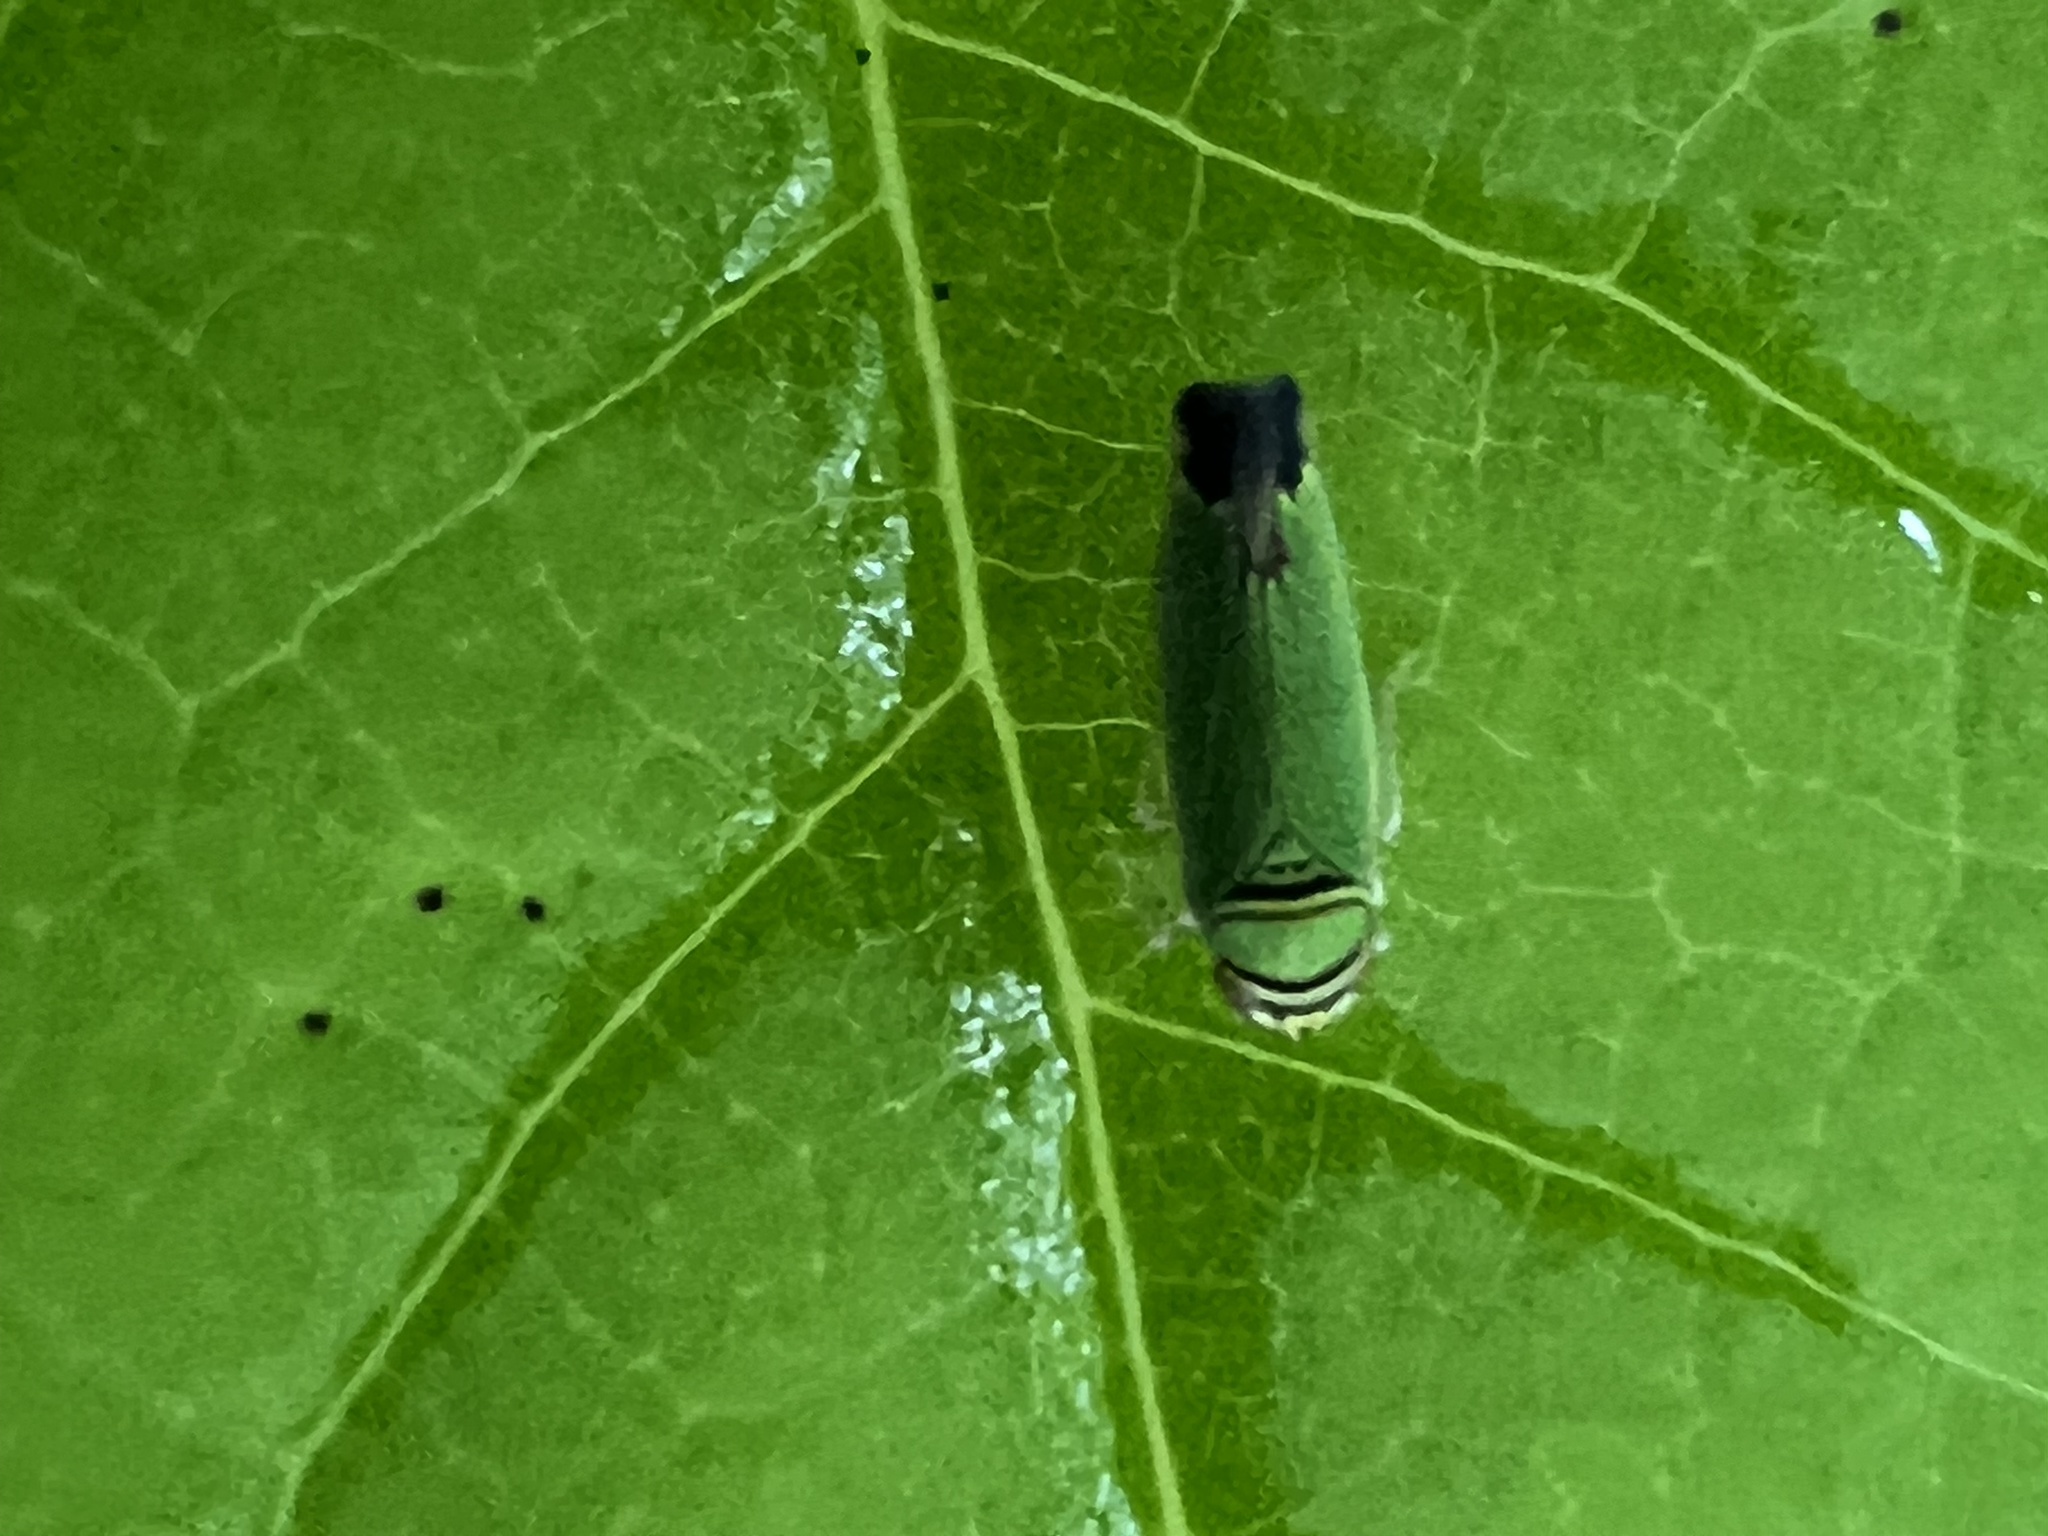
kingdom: Animalia
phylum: Arthropoda
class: Insecta
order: Hemiptera
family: Cicadellidae
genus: Tylozygus
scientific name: Tylozygus geometricus
